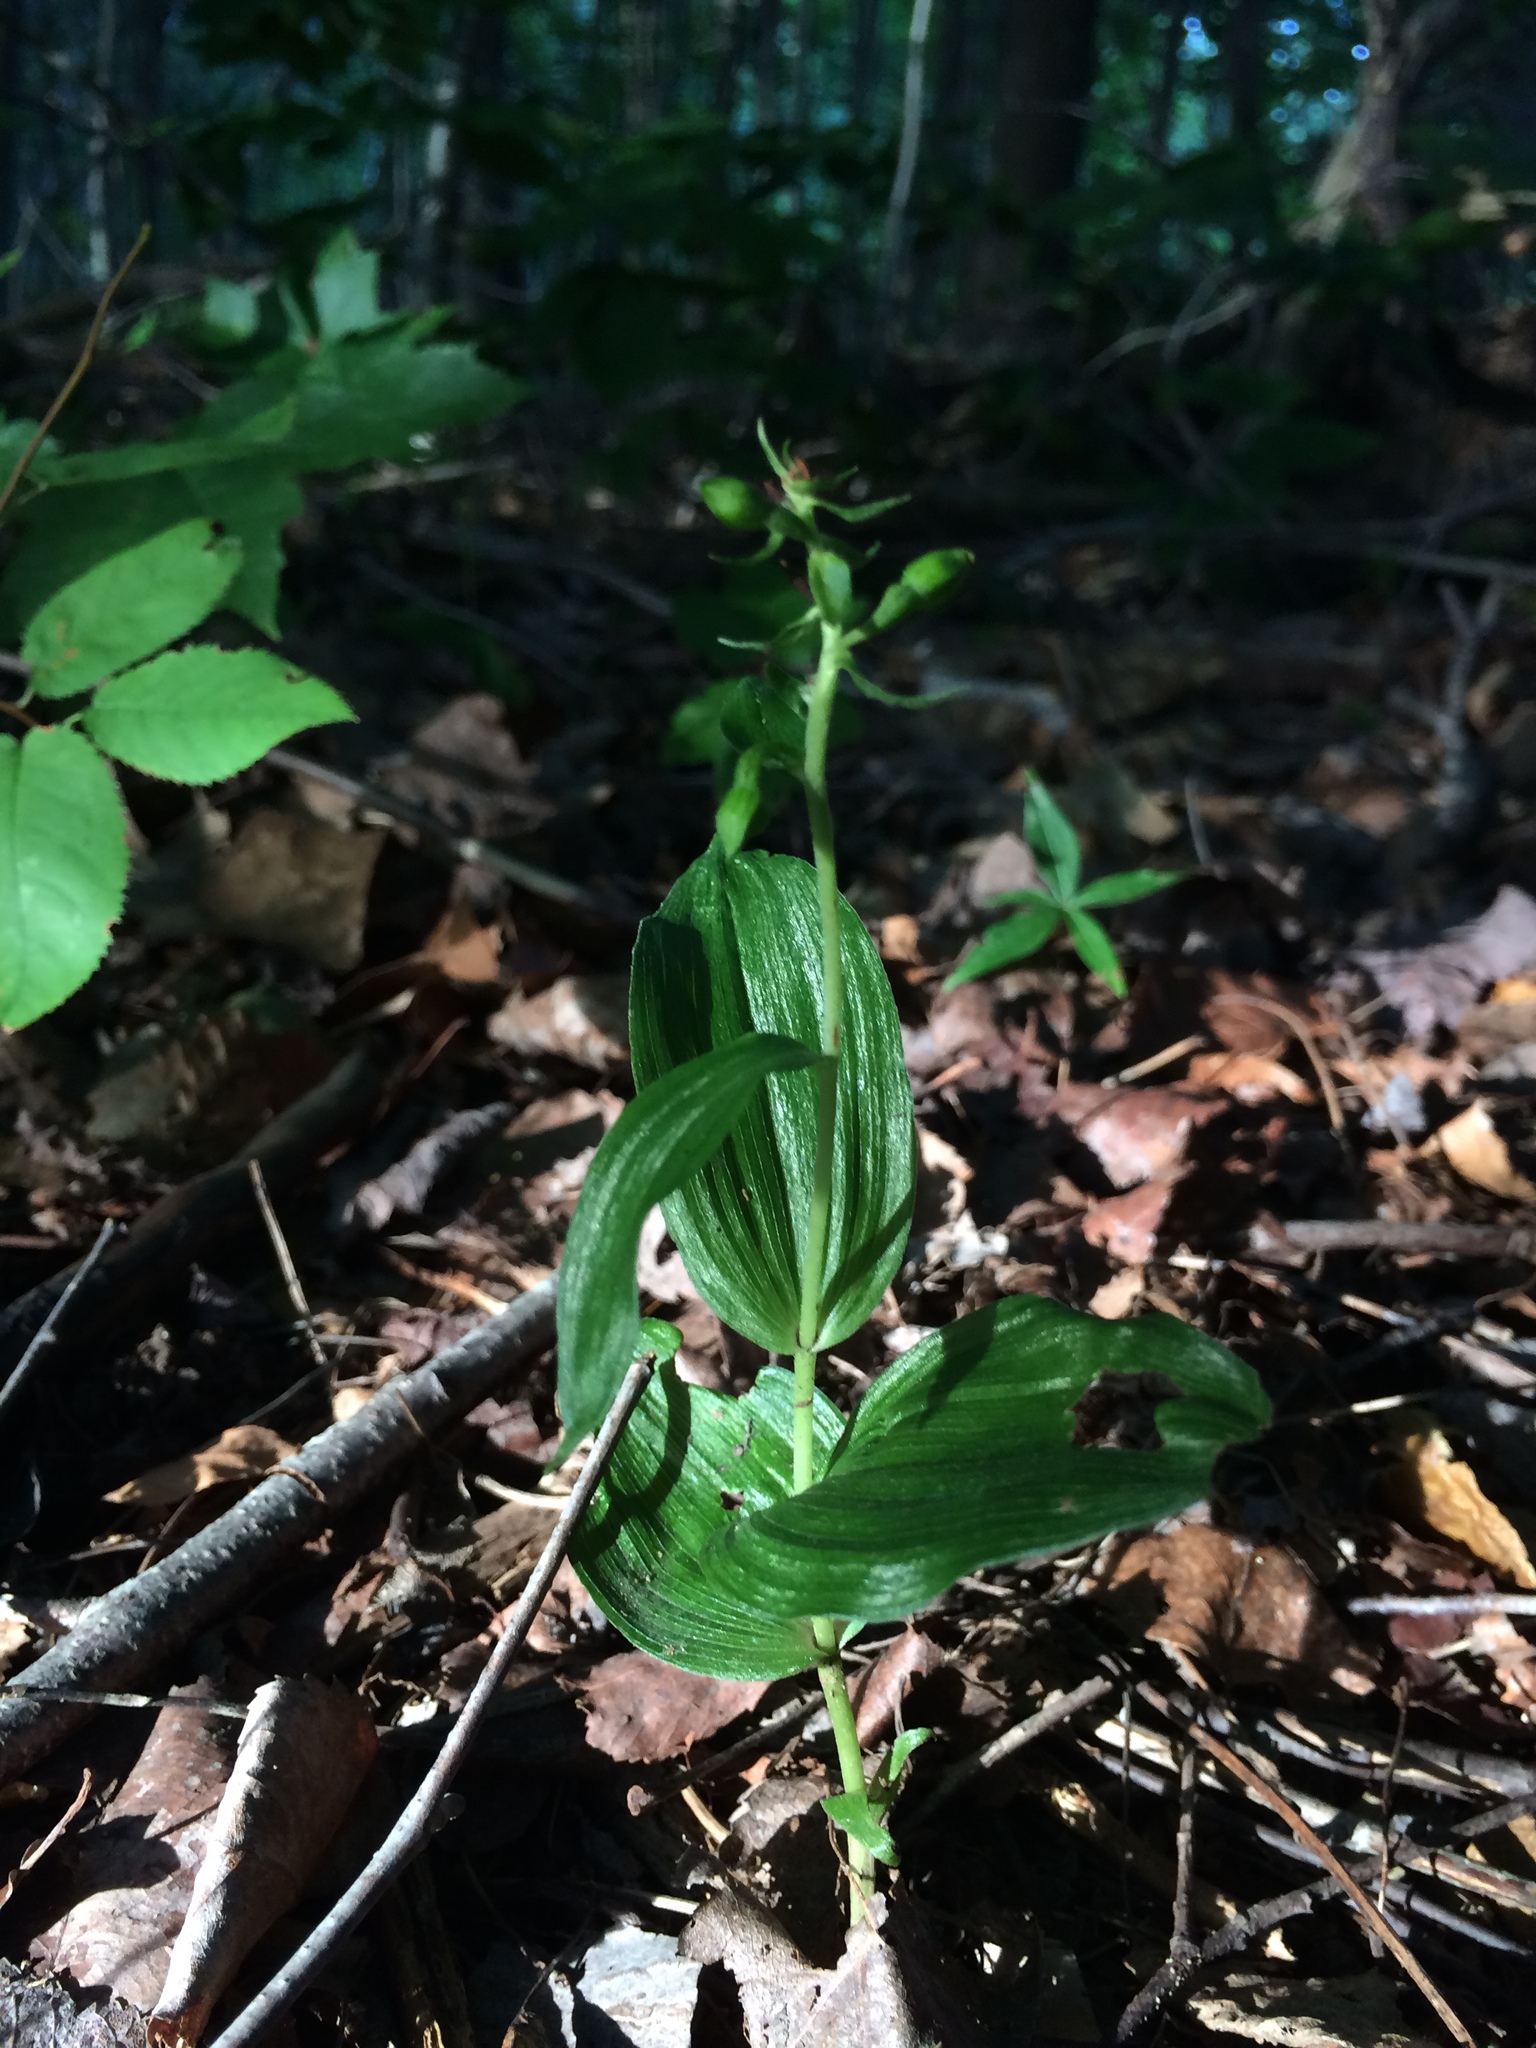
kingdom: Plantae
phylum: Tracheophyta
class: Liliopsida
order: Asparagales
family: Orchidaceae
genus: Epipactis
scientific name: Epipactis helleborine
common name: Broad-leaved helleborine
